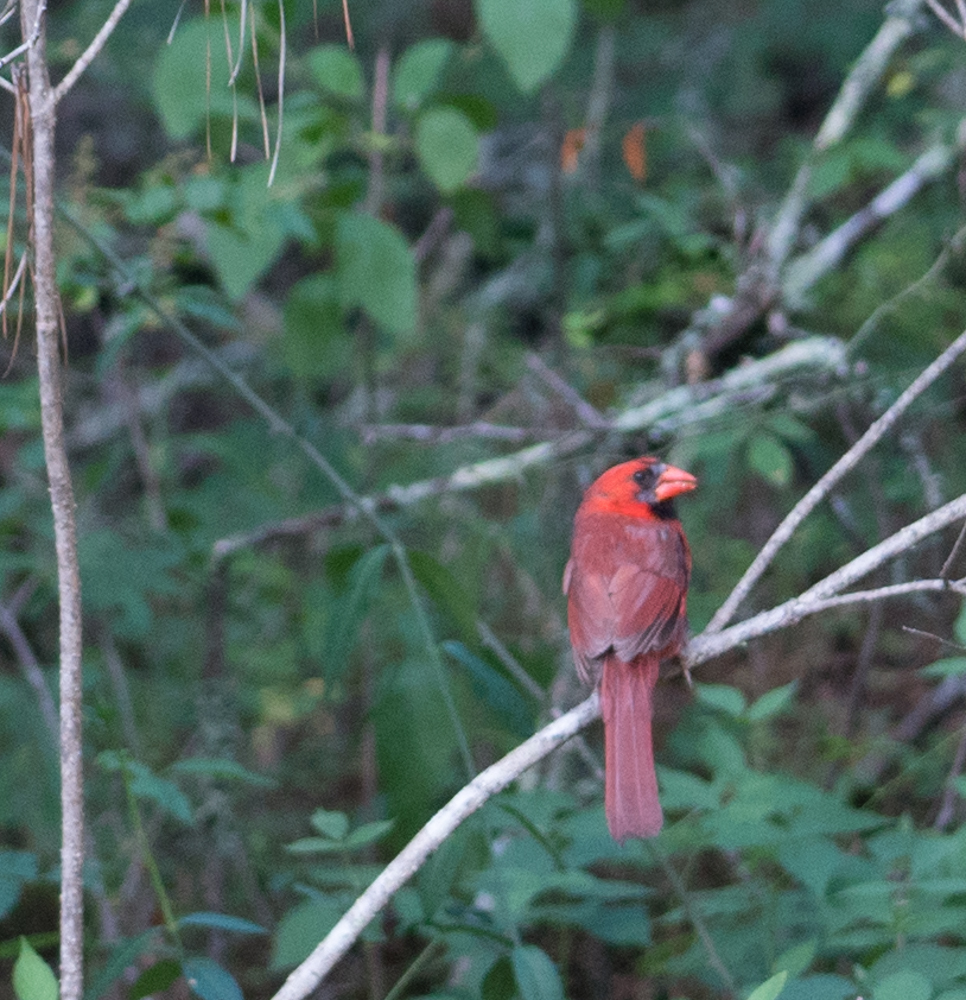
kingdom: Animalia
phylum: Chordata
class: Aves
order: Passeriformes
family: Cardinalidae
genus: Cardinalis
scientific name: Cardinalis cardinalis
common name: Northern cardinal
